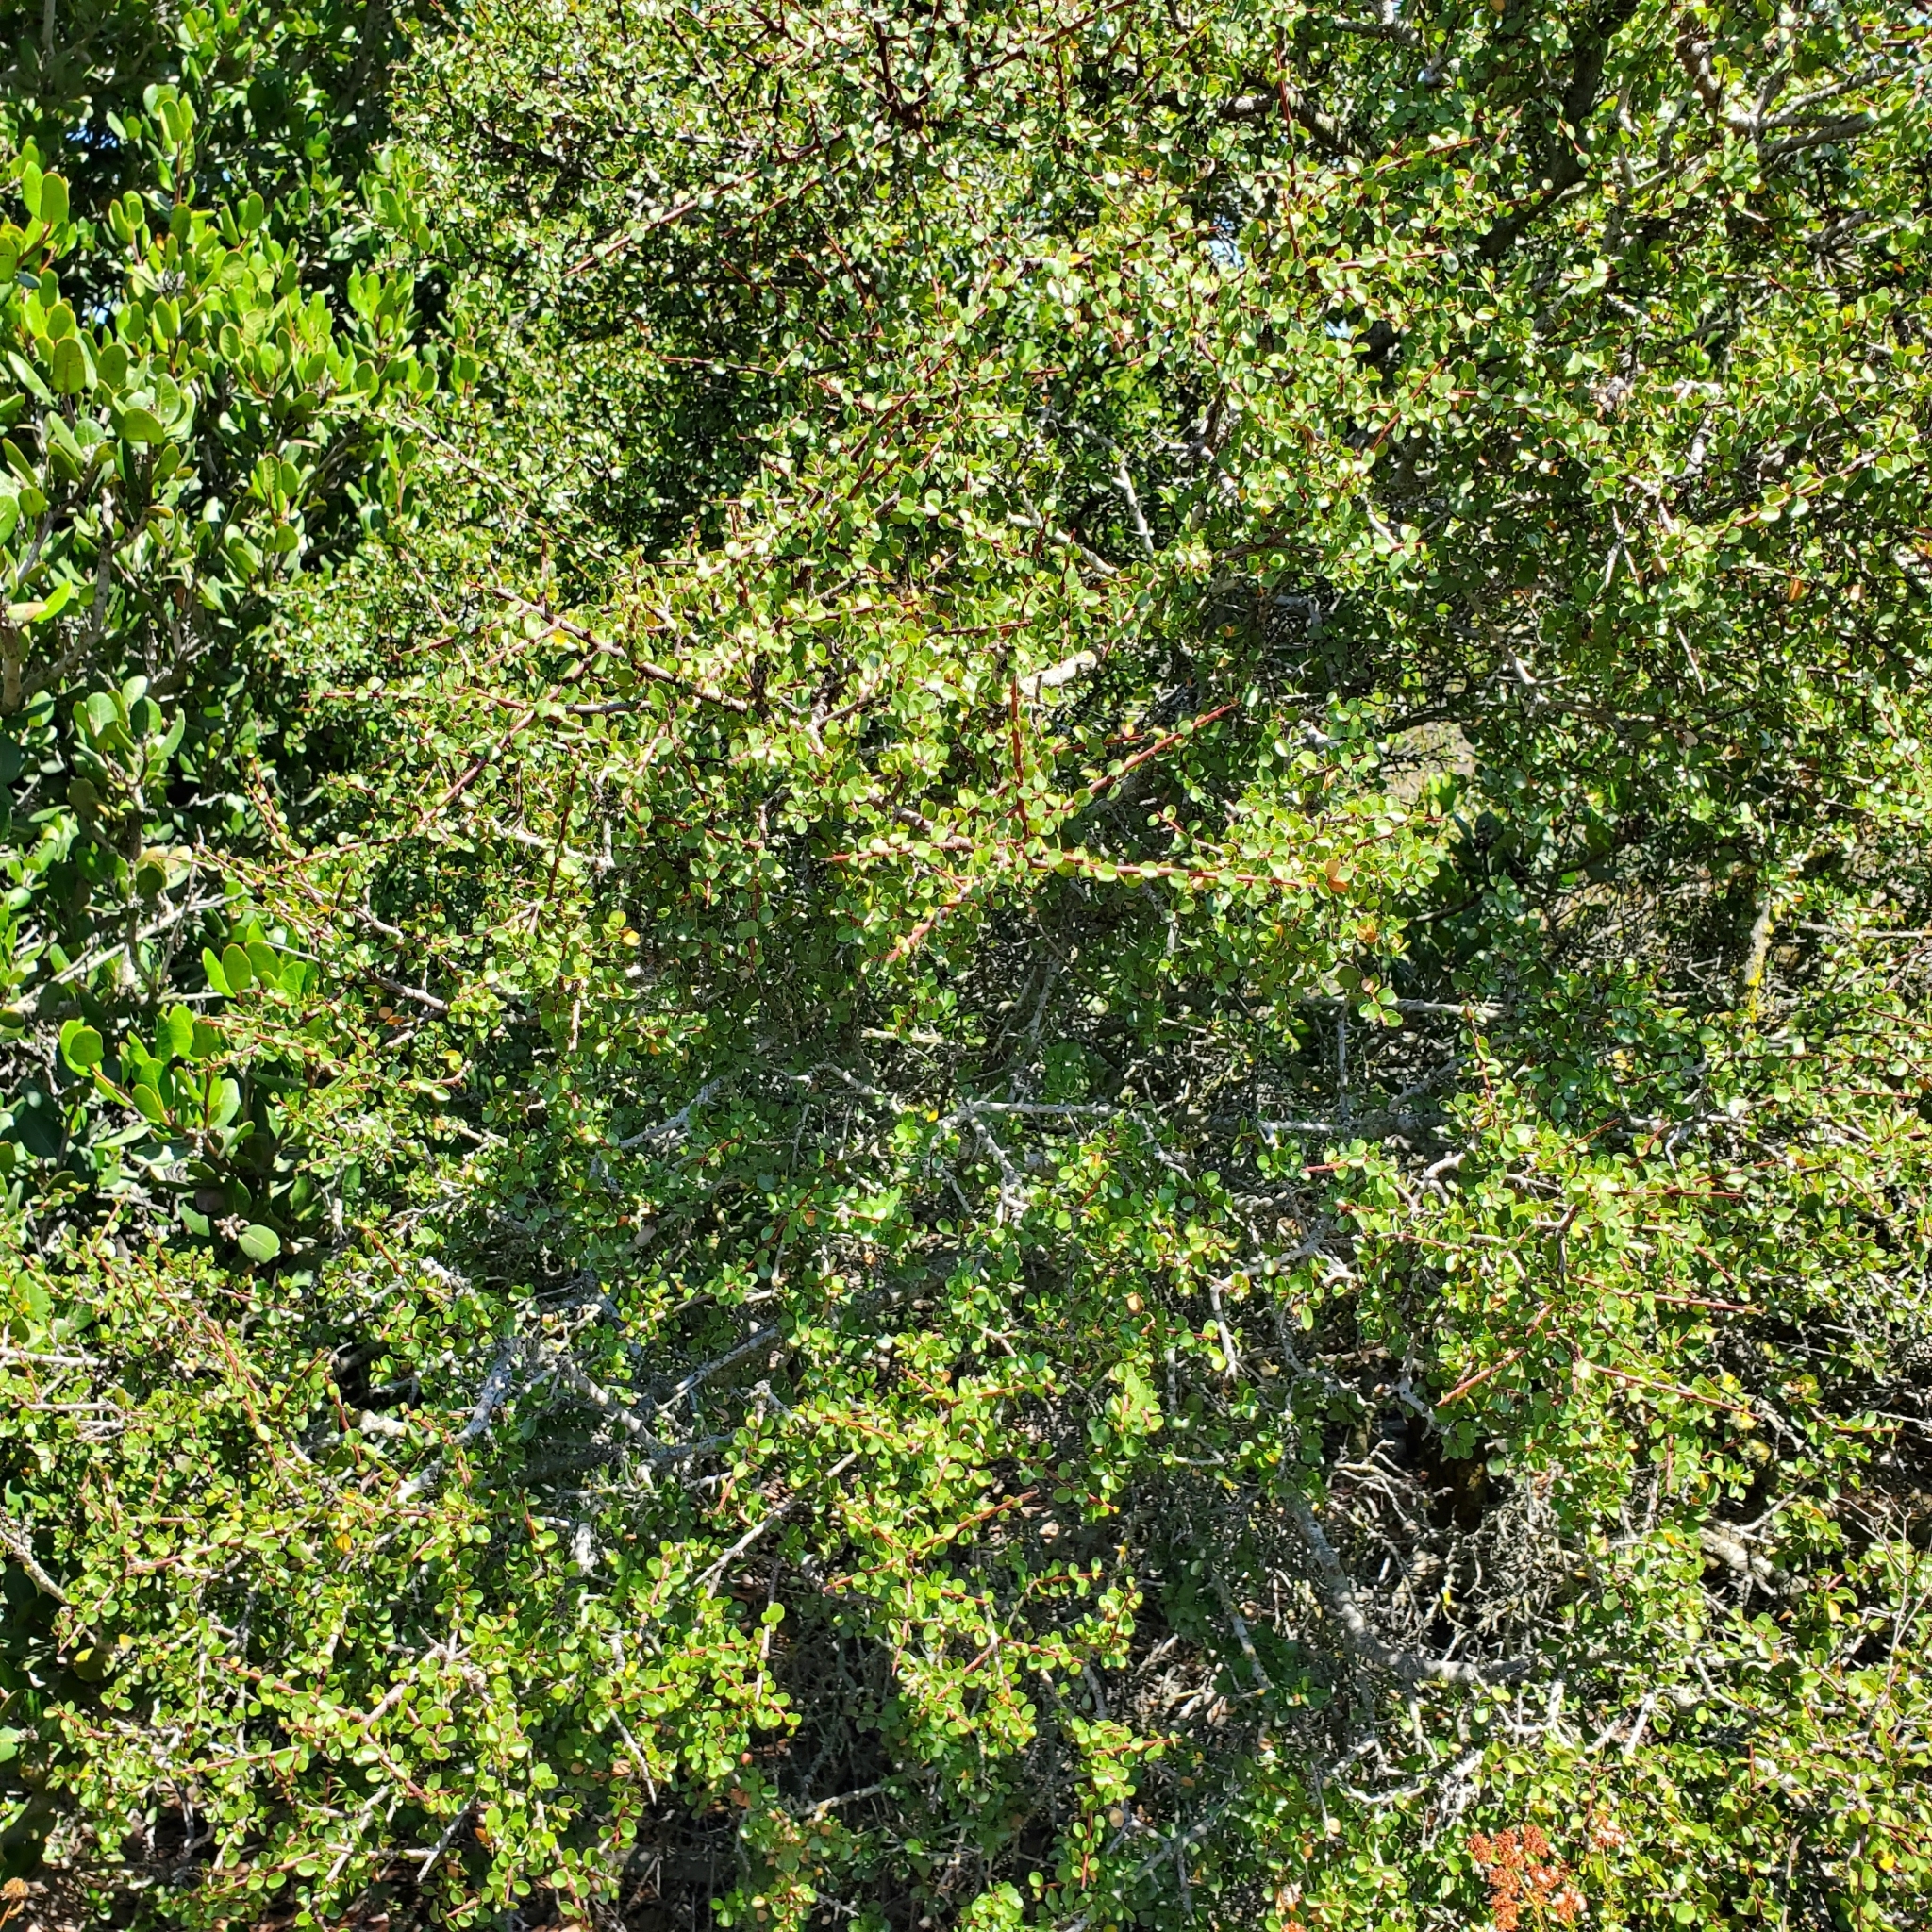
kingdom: Plantae
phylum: Tracheophyta
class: Magnoliopsida
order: Rosales
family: Rhamnaceae
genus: Endotropis
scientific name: Endotropis crocea
